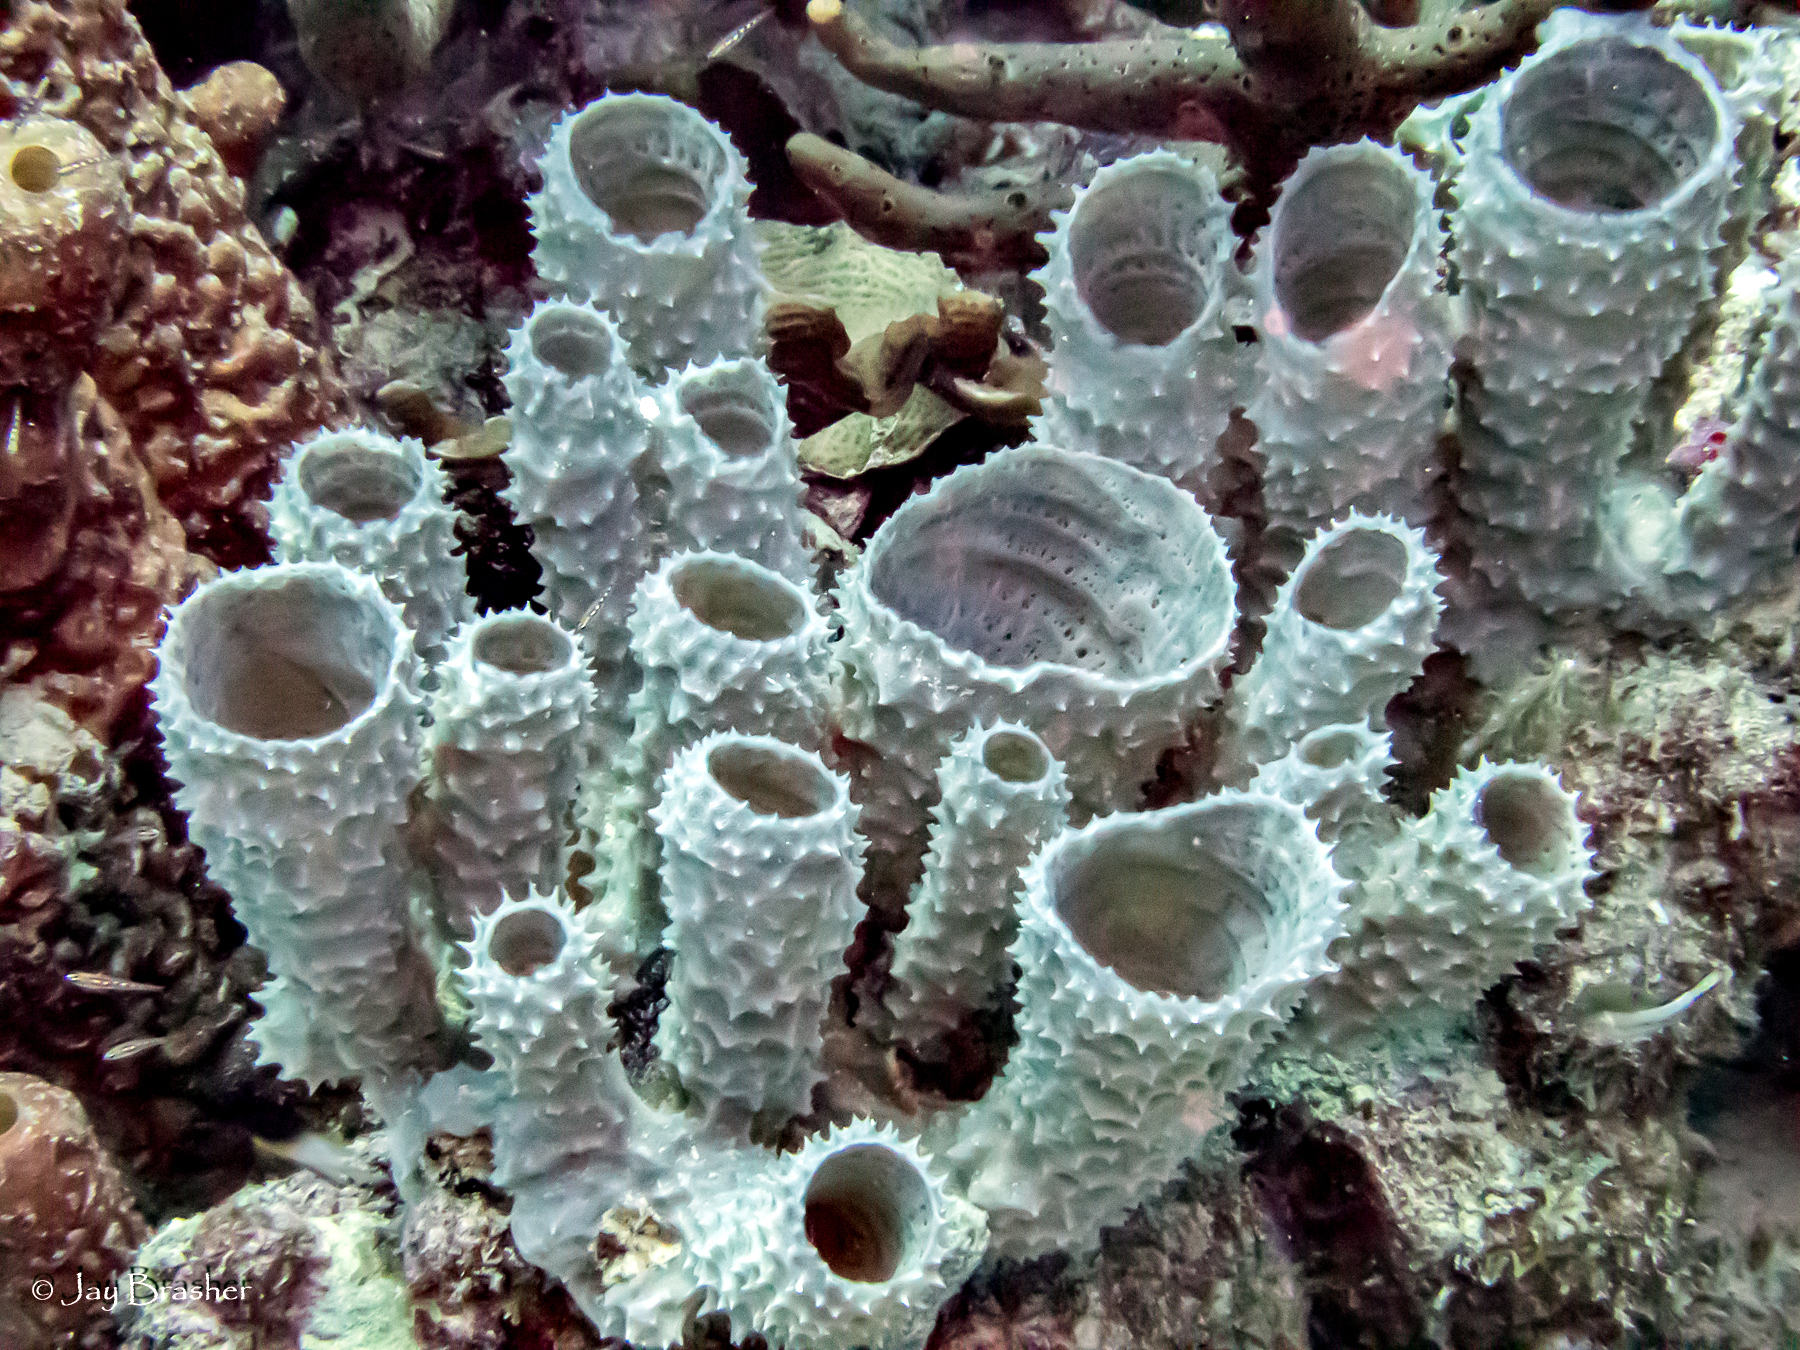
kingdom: Animalia
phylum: Porifera
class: Demospongiae
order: Haplosclerida
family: Callyspongiidae
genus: Callyspongia
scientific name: Callyspongia aculeata
